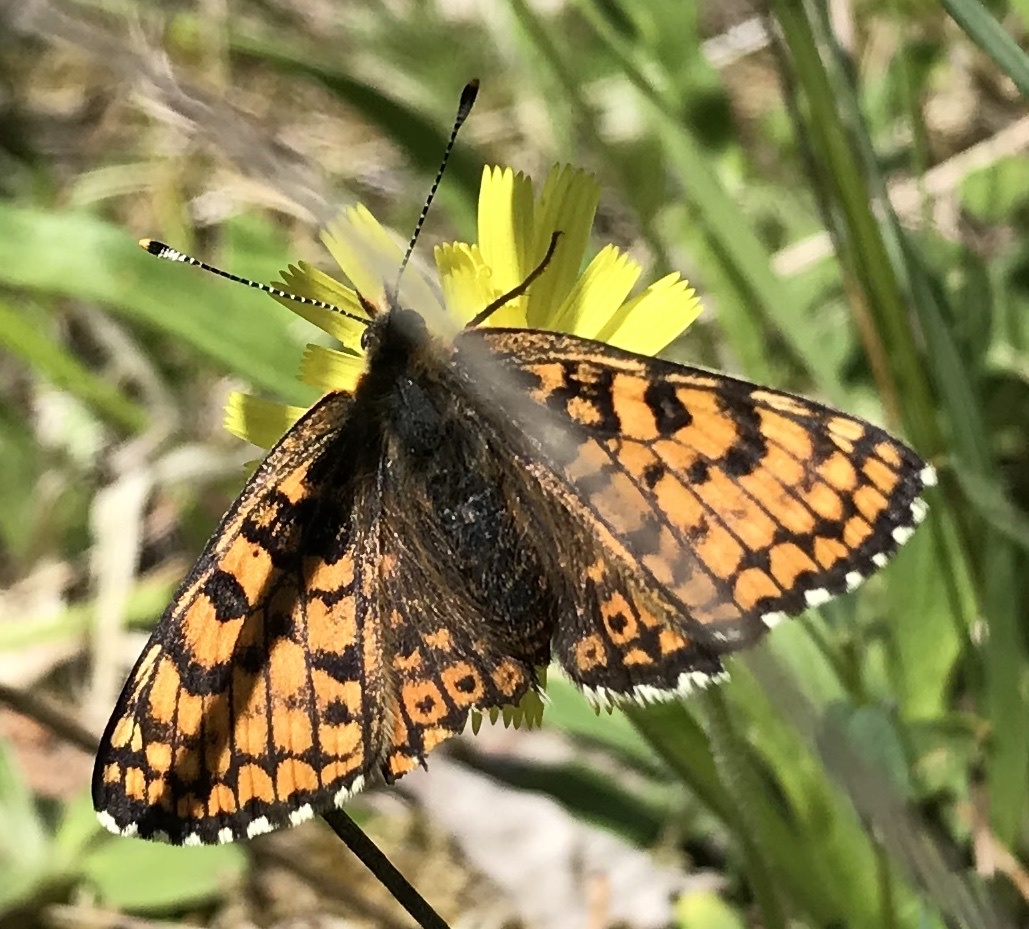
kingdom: Animalia
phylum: Arthropoda
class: Insecta
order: Lepidoptera
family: Nymphalidae
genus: Melitaea
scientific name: Melitaea cinxia
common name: Glanville fritillary
